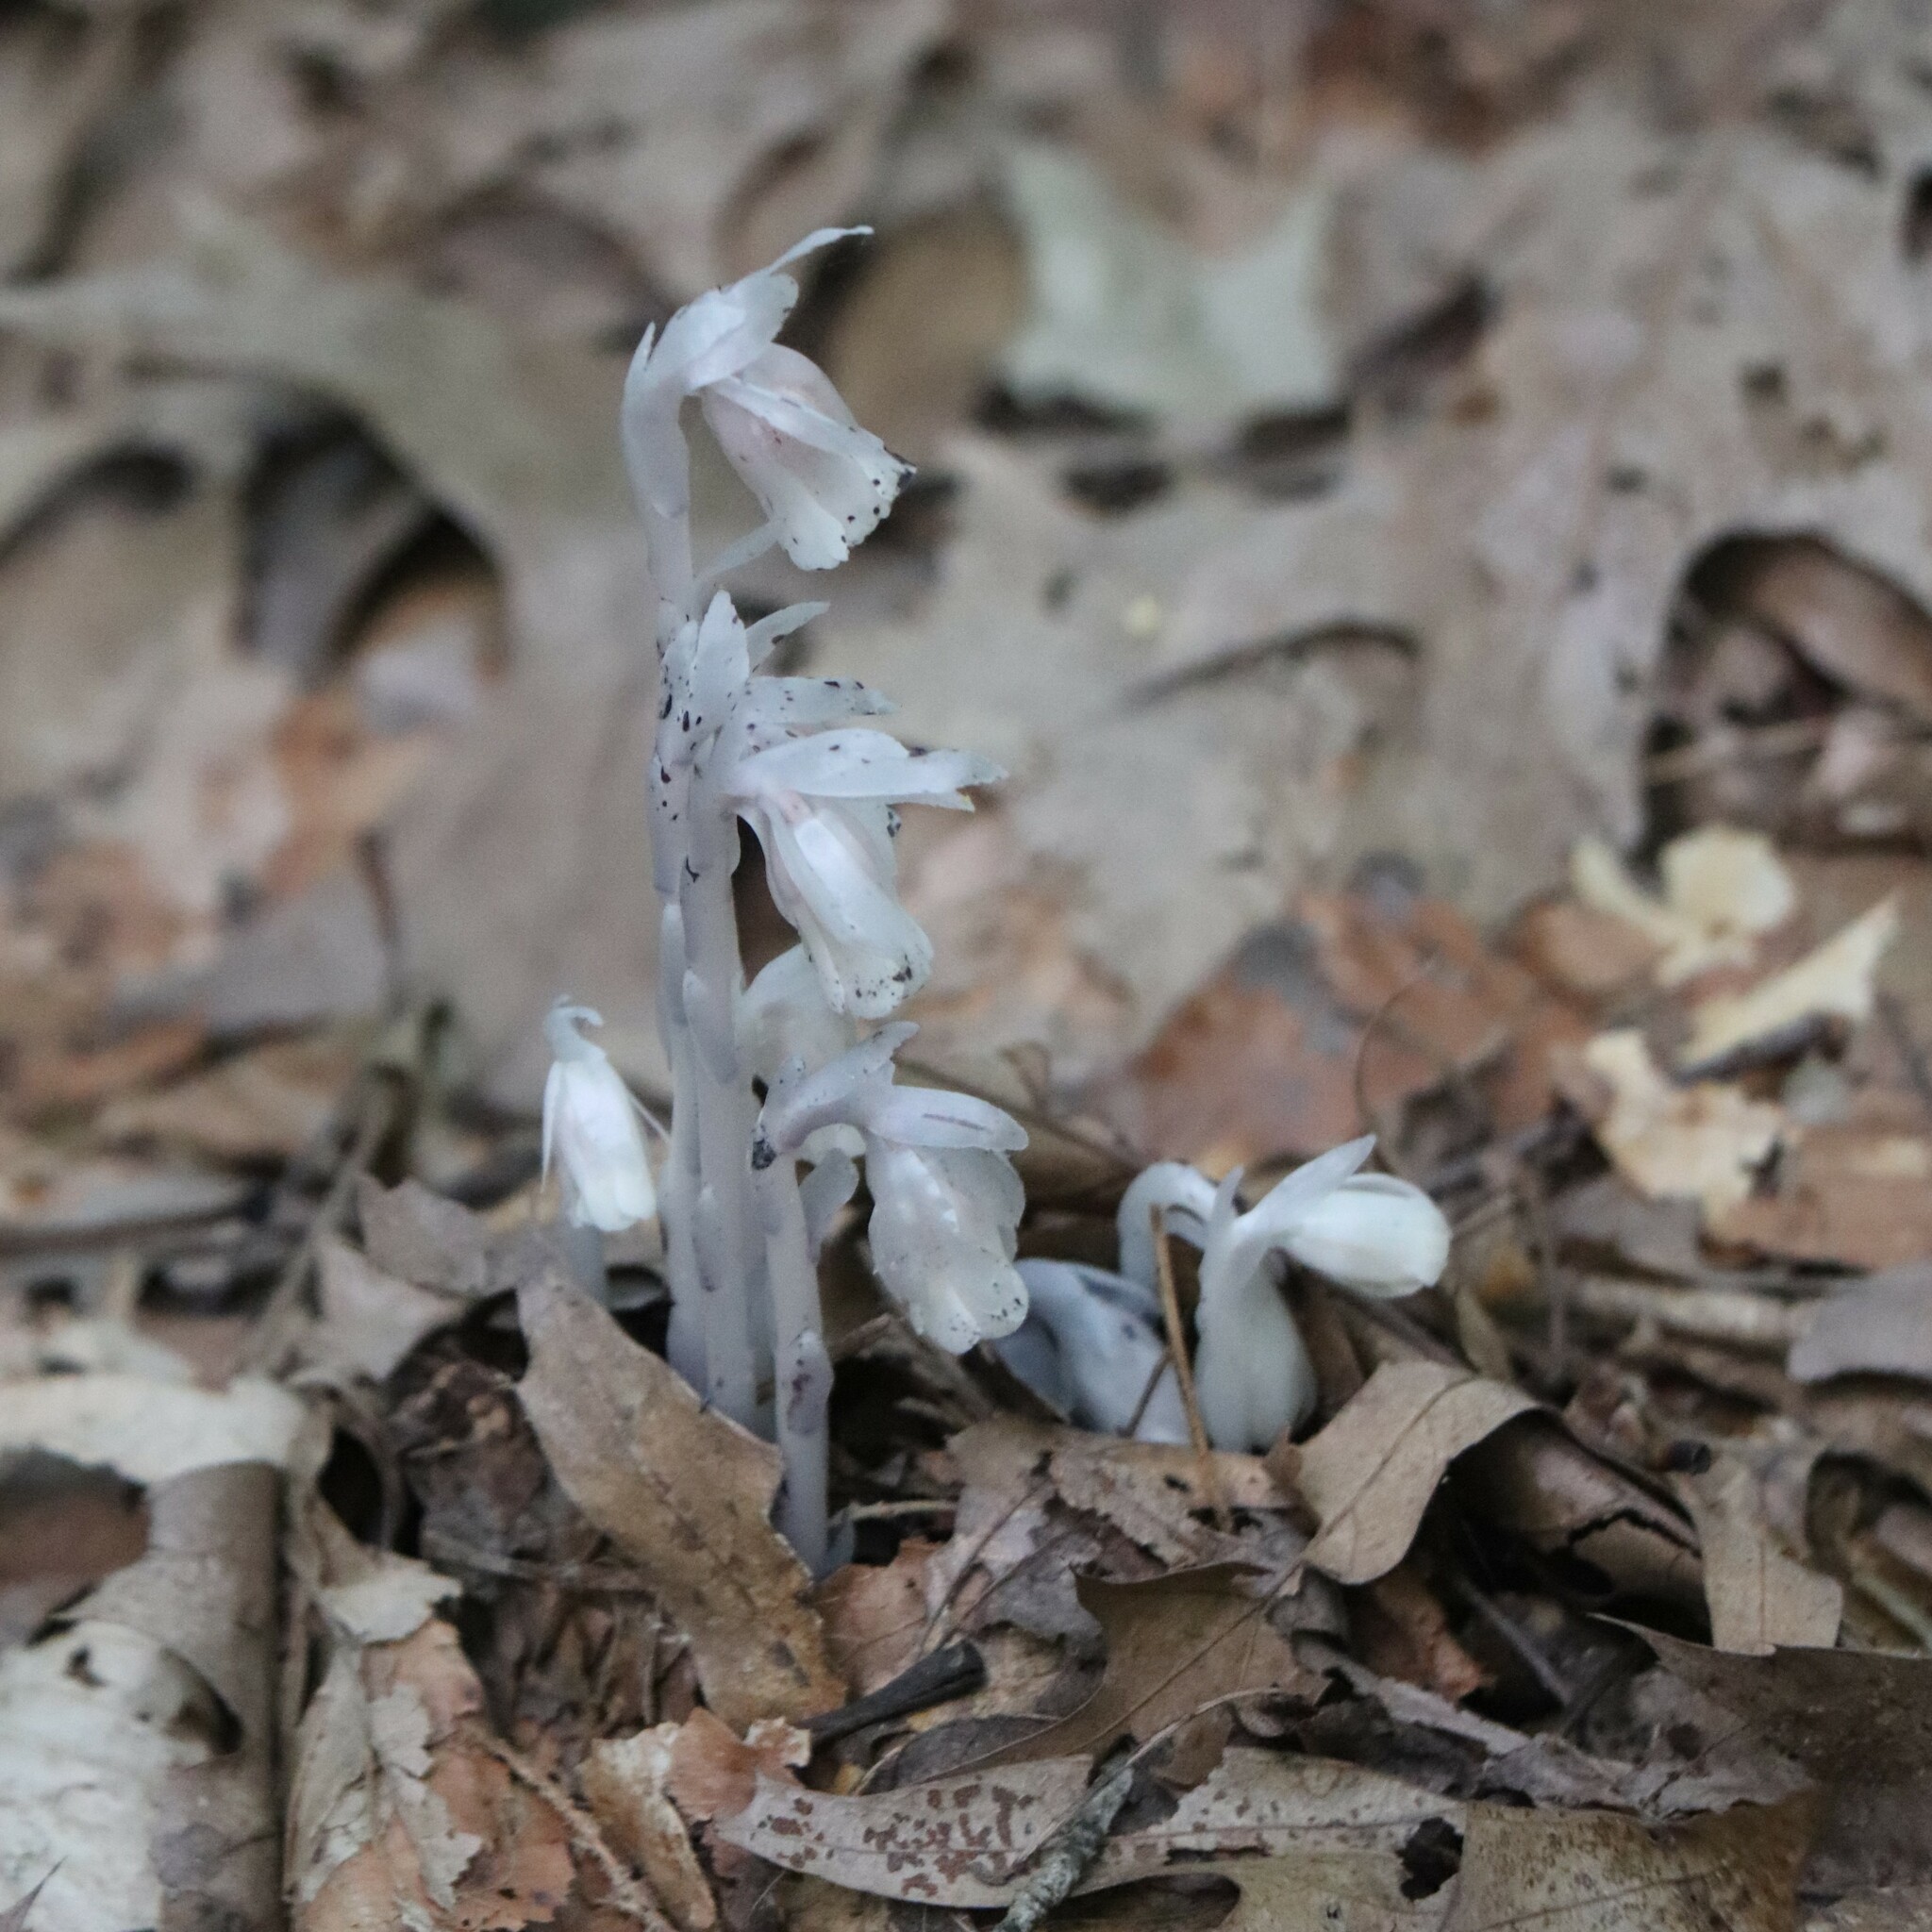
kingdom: Plantae
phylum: Tracheophyta
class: Magnoliopsida
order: Ericales
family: Ericaceae
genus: Monotropa
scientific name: Monotropa uniflora
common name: Convulsion root
